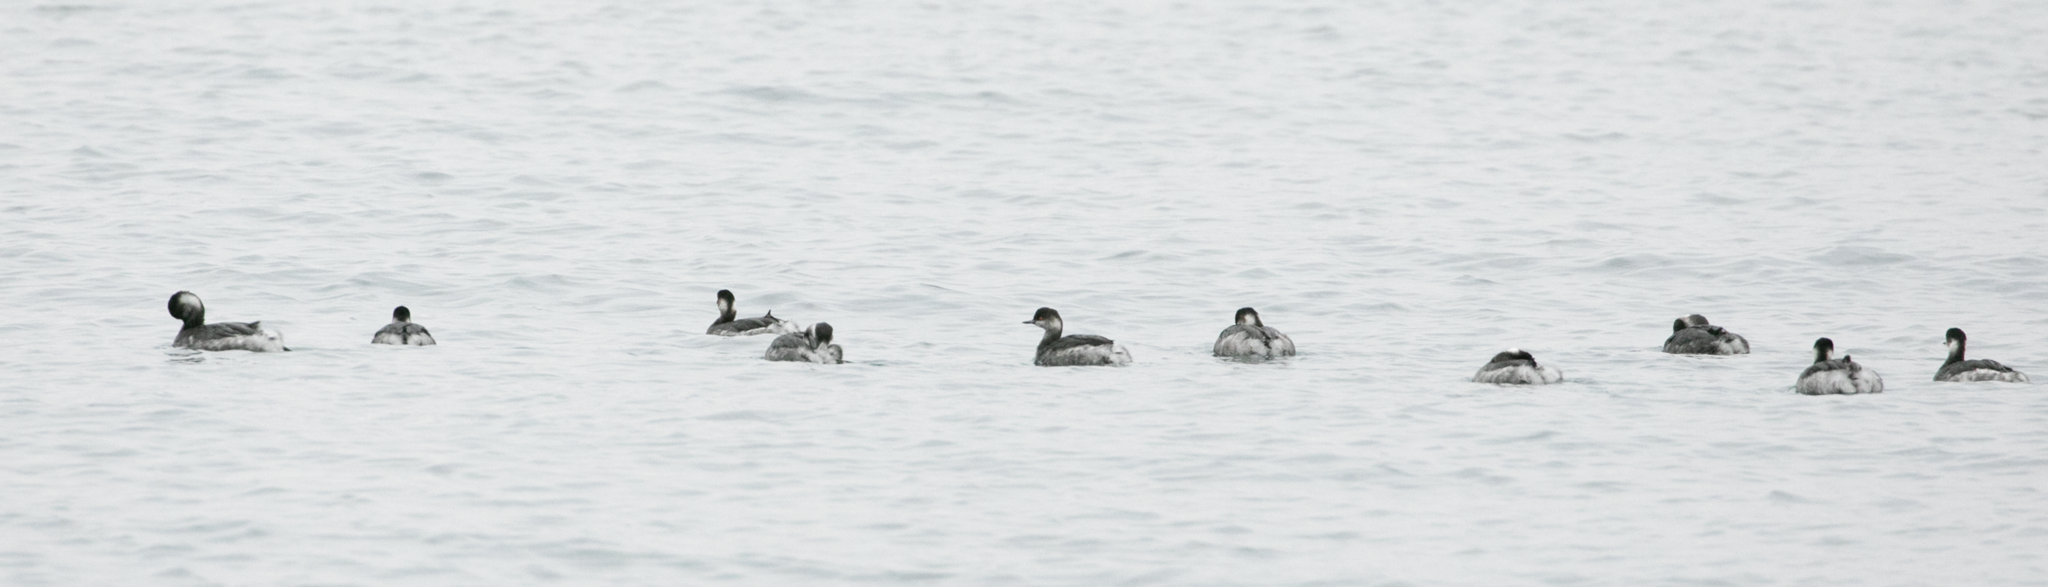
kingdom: Animalia
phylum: Chordata
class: Aves
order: Podicipediformes
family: Podicipedidae
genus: Podiceps
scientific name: Podiceps nigricollis
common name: Black-necked grebe
